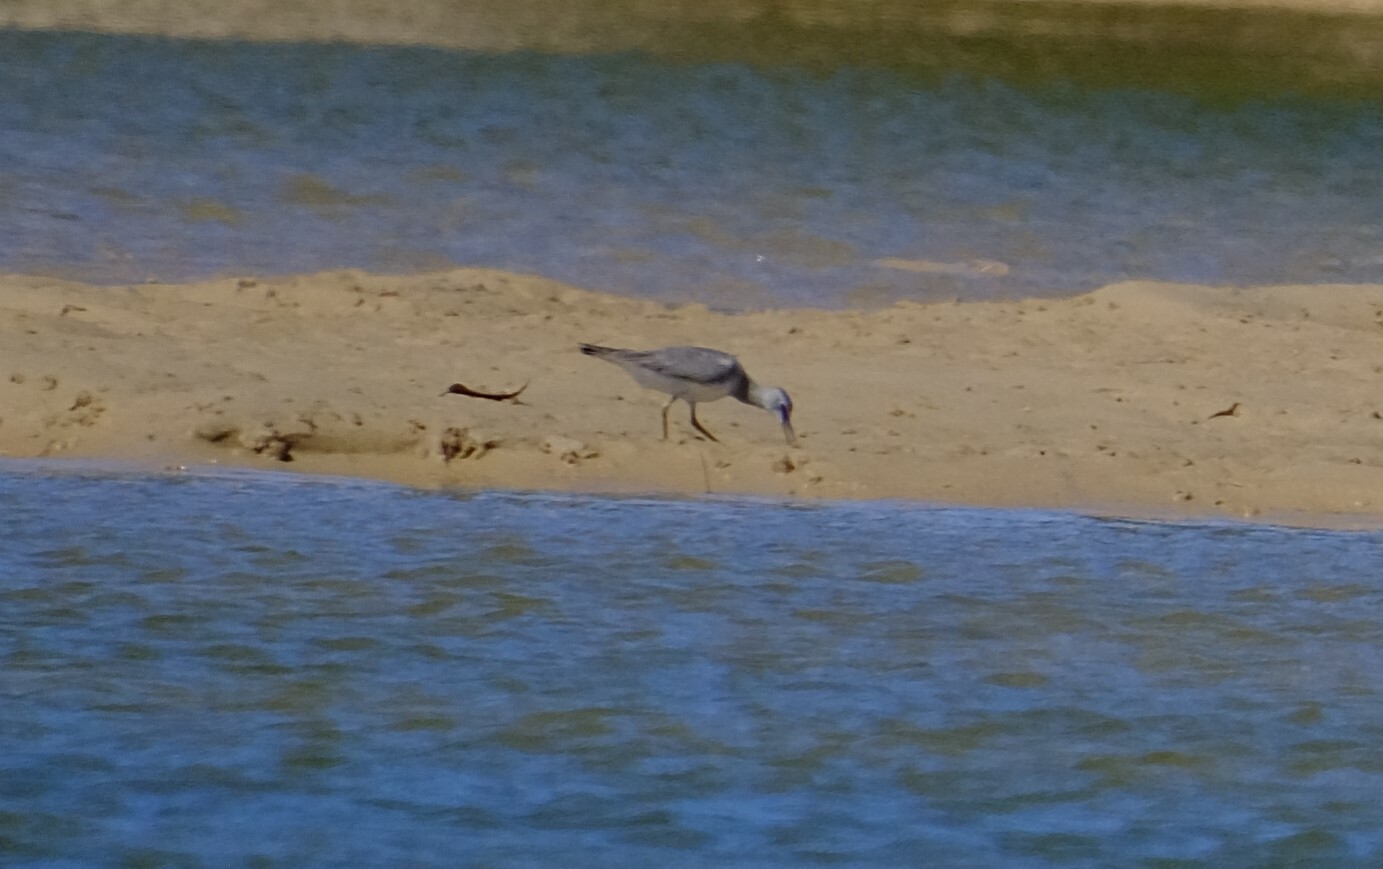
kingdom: Animalia
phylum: Chordata
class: Aves
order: Charadriiformes
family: Scolopacidae
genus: Tringa
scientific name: Tringa brevipes
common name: Grey-tailed tattler
